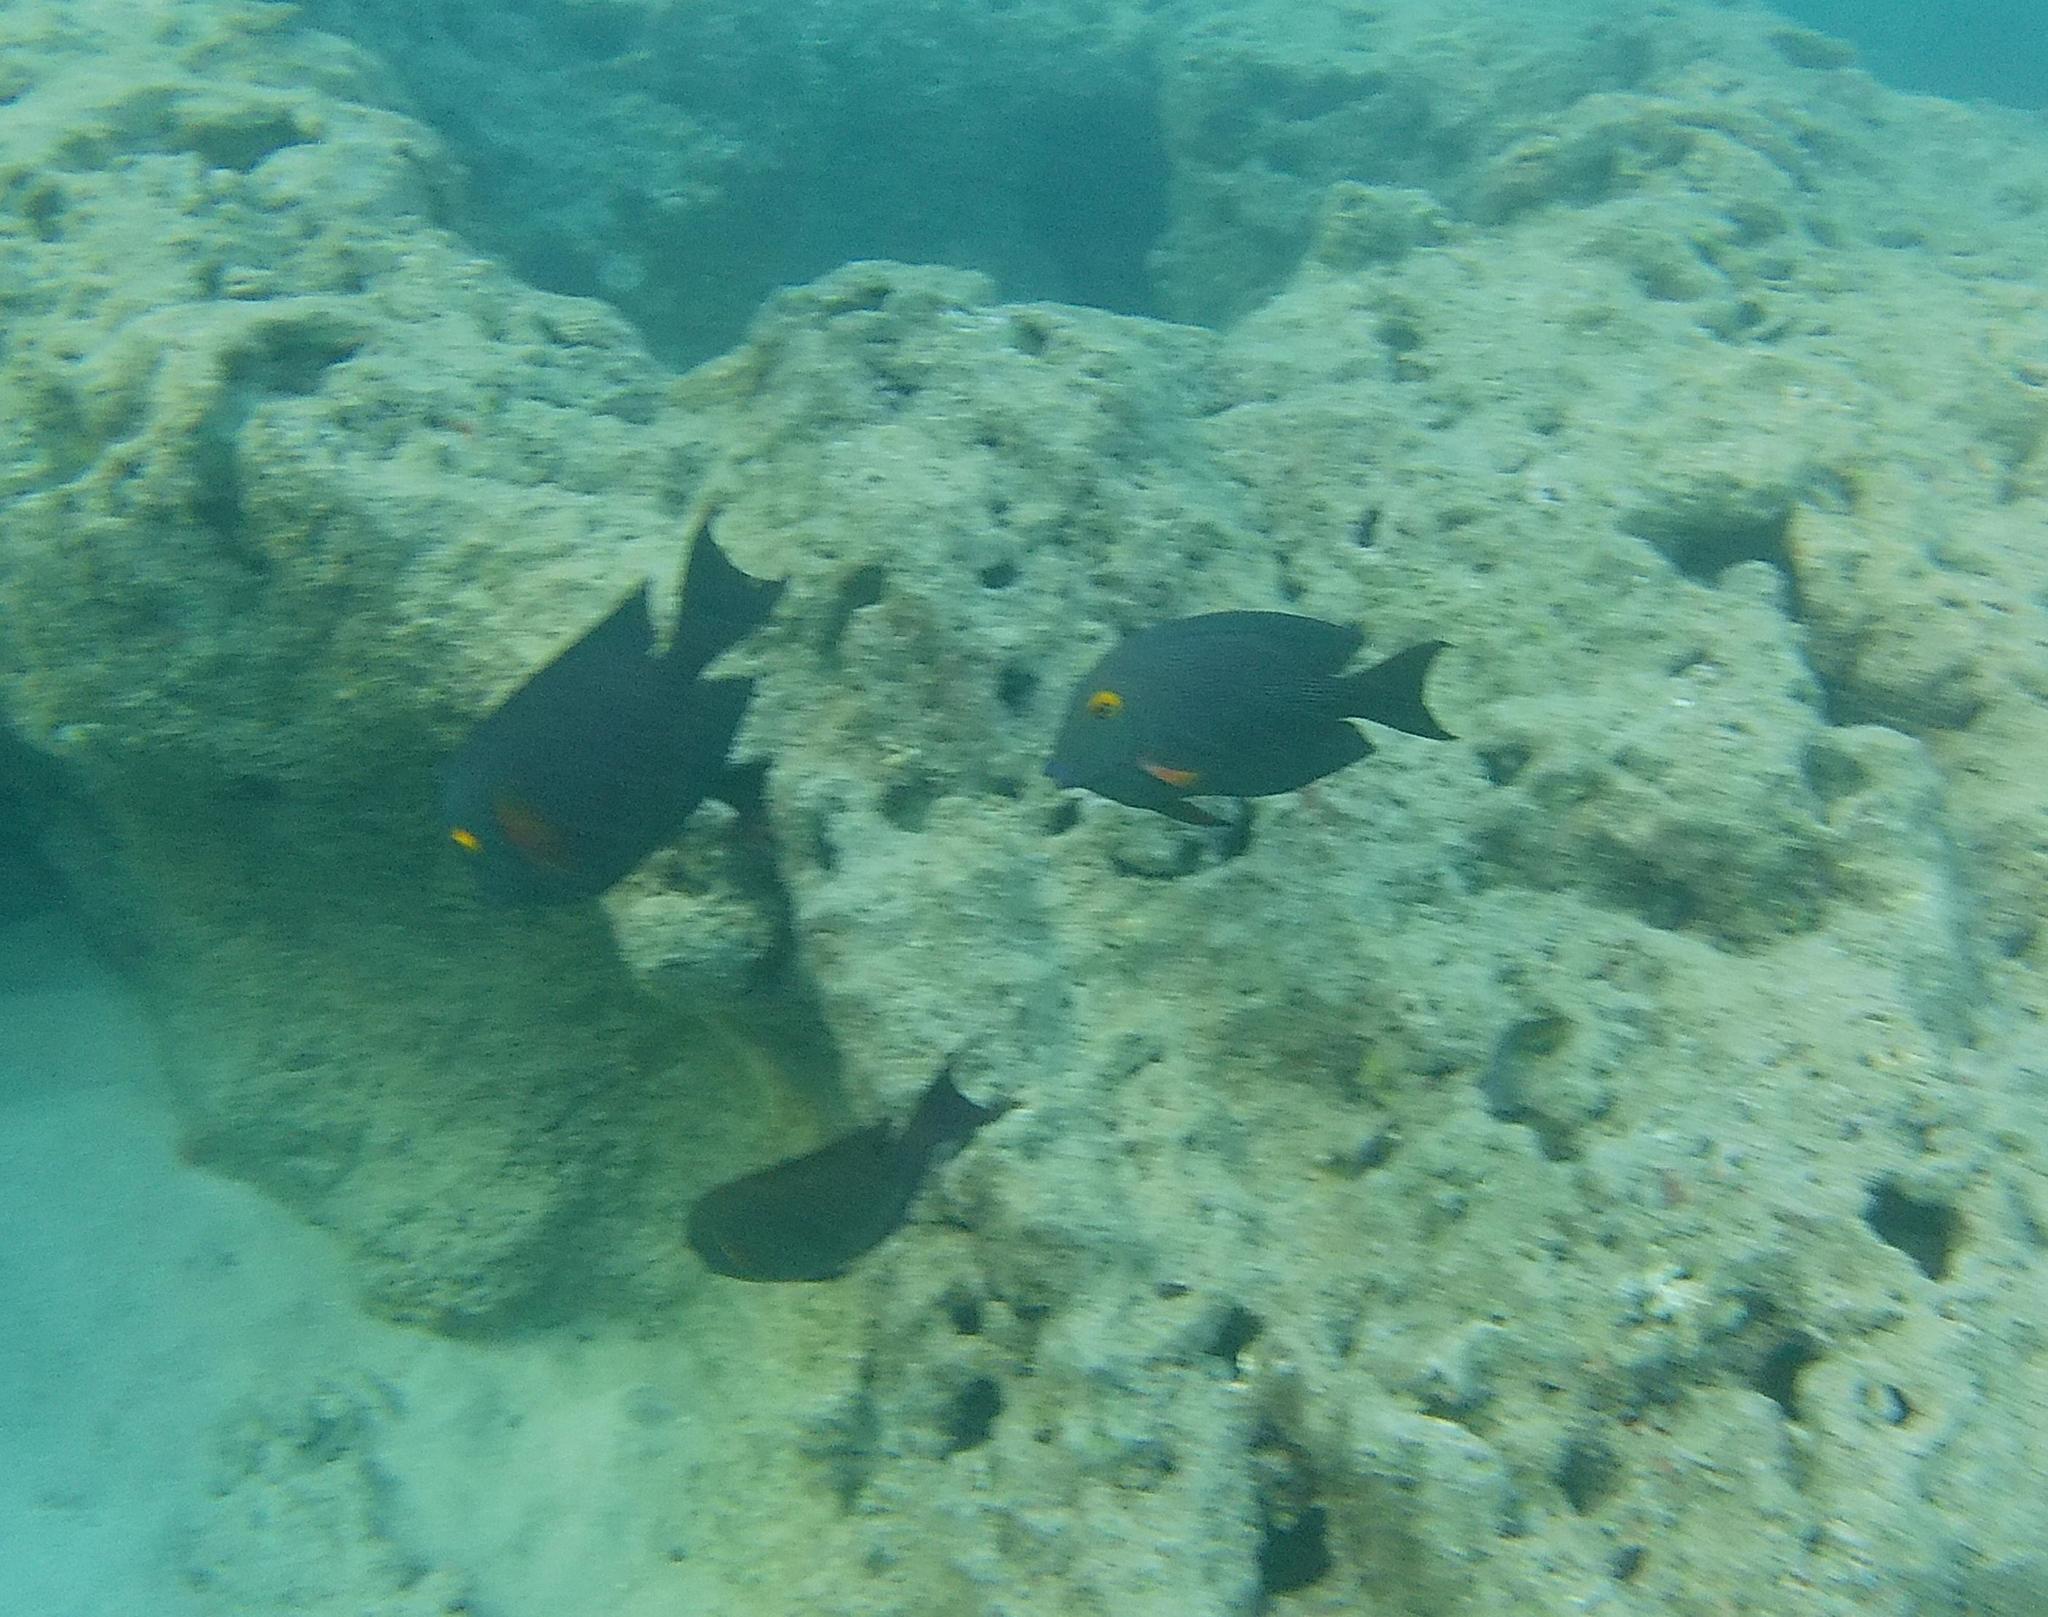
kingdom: Animalia
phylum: Chordata
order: Perciformes
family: Acanthuridae
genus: Ctenochaetus
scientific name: Ctenochaetus strigosus
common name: Bristletoothed surgeonfish
